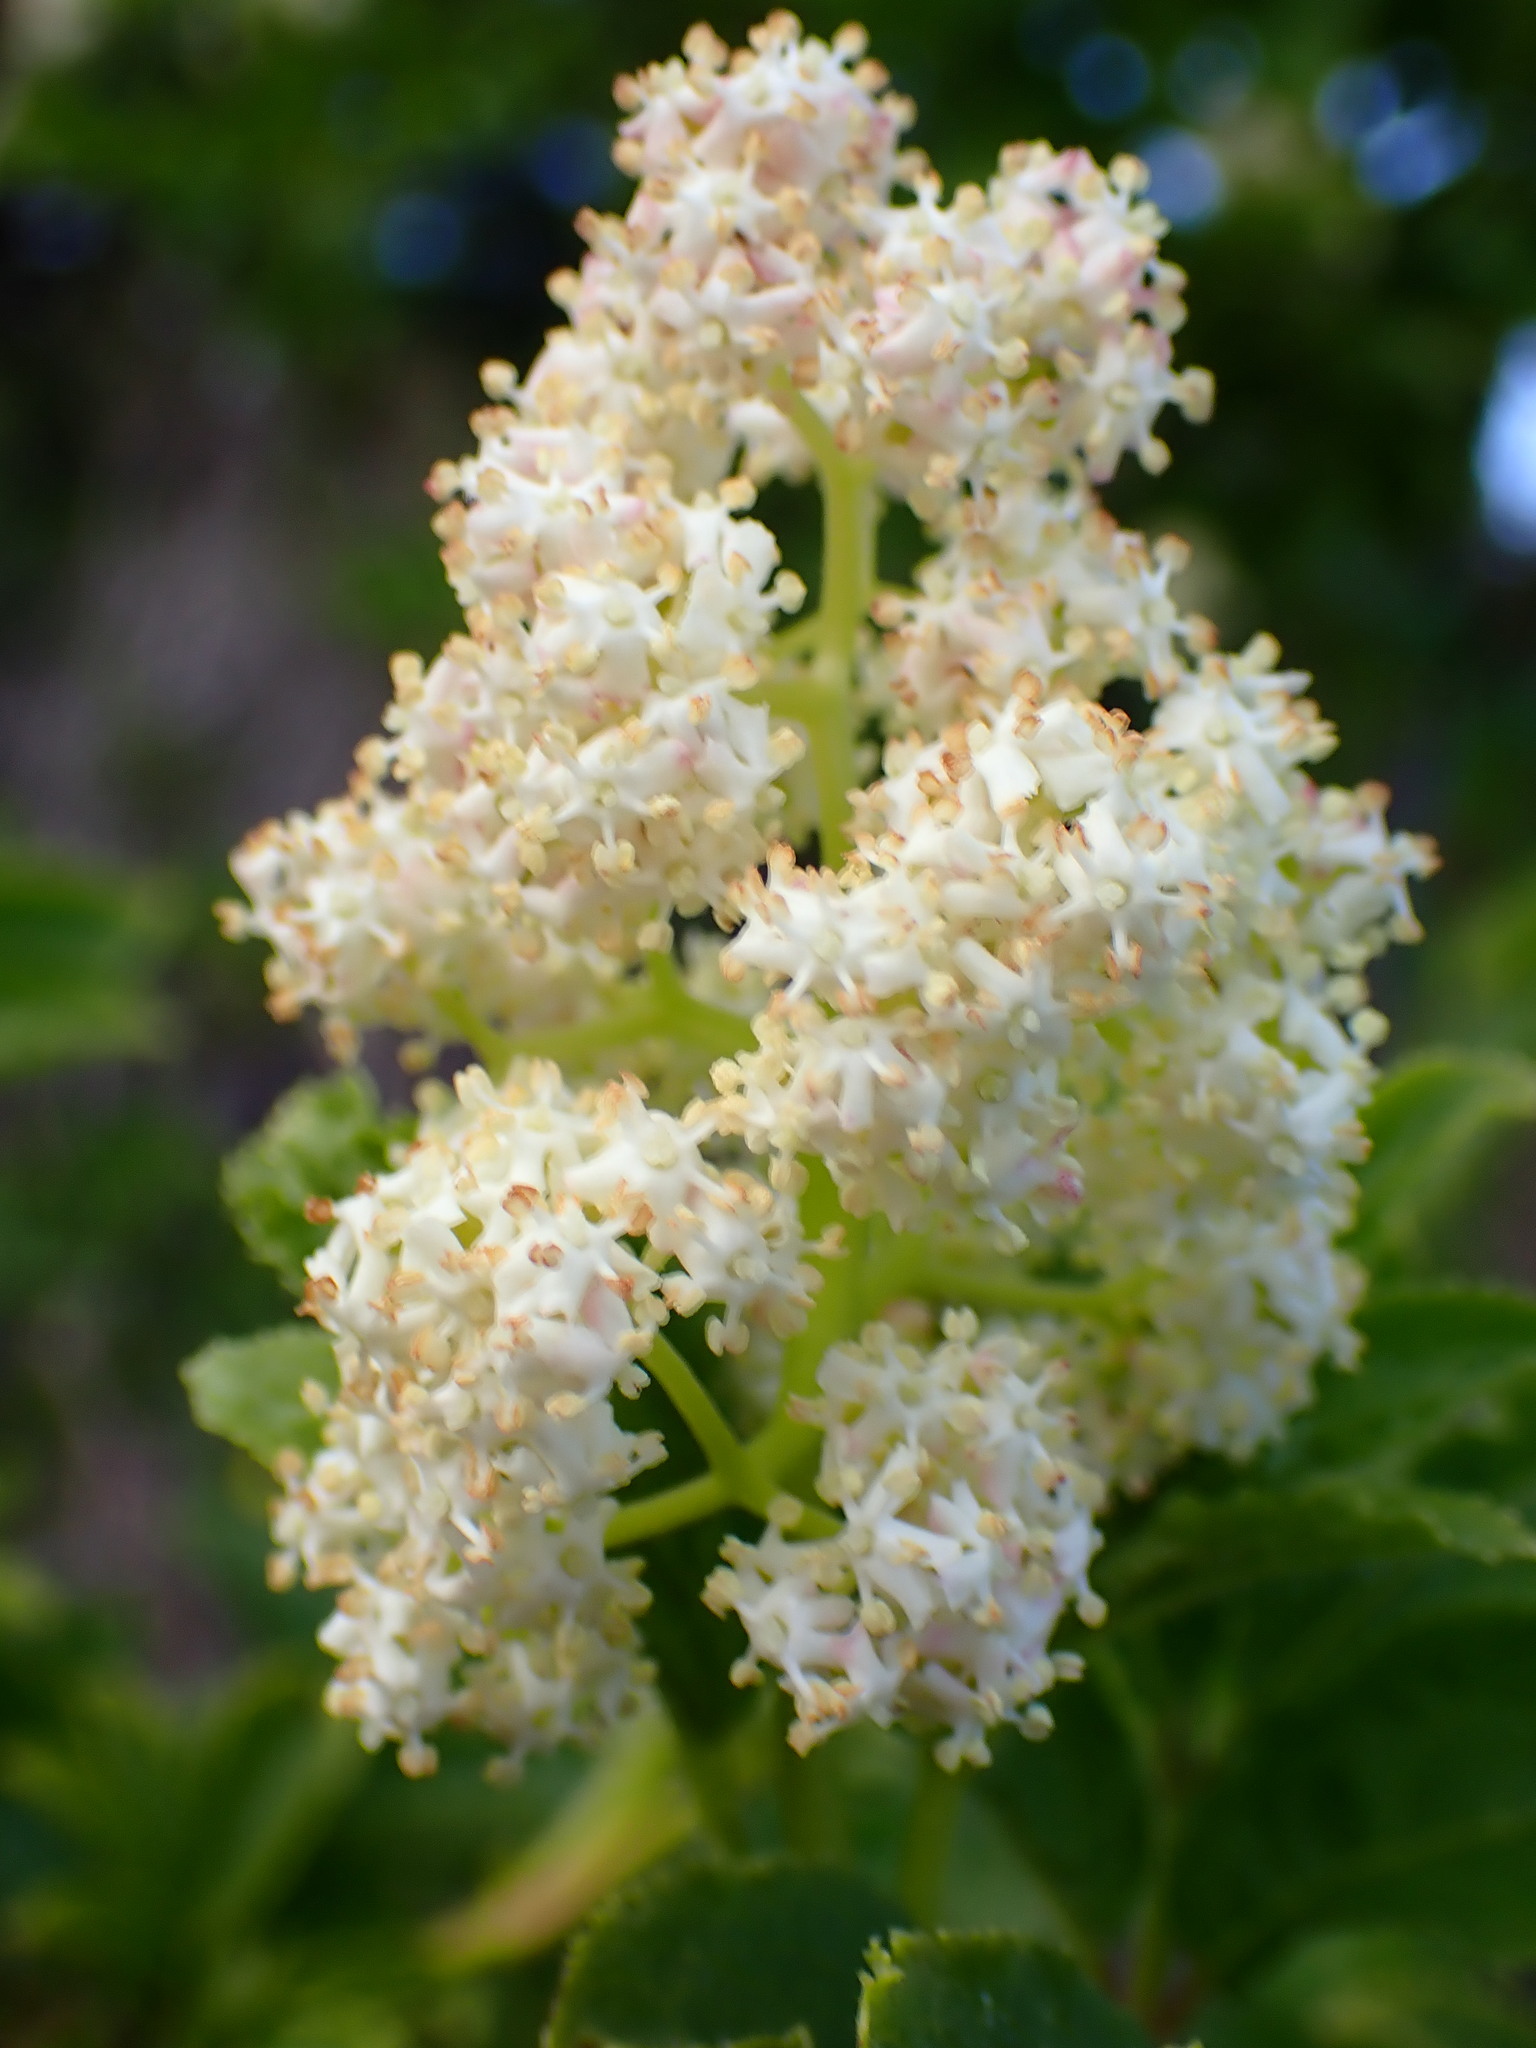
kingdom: Plantae
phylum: Tracheophyta
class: Magnoliopsida
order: Dipsacales
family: Viburnaceae
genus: Sambucus
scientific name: Sambucus racemosa
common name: Red-berried elder
